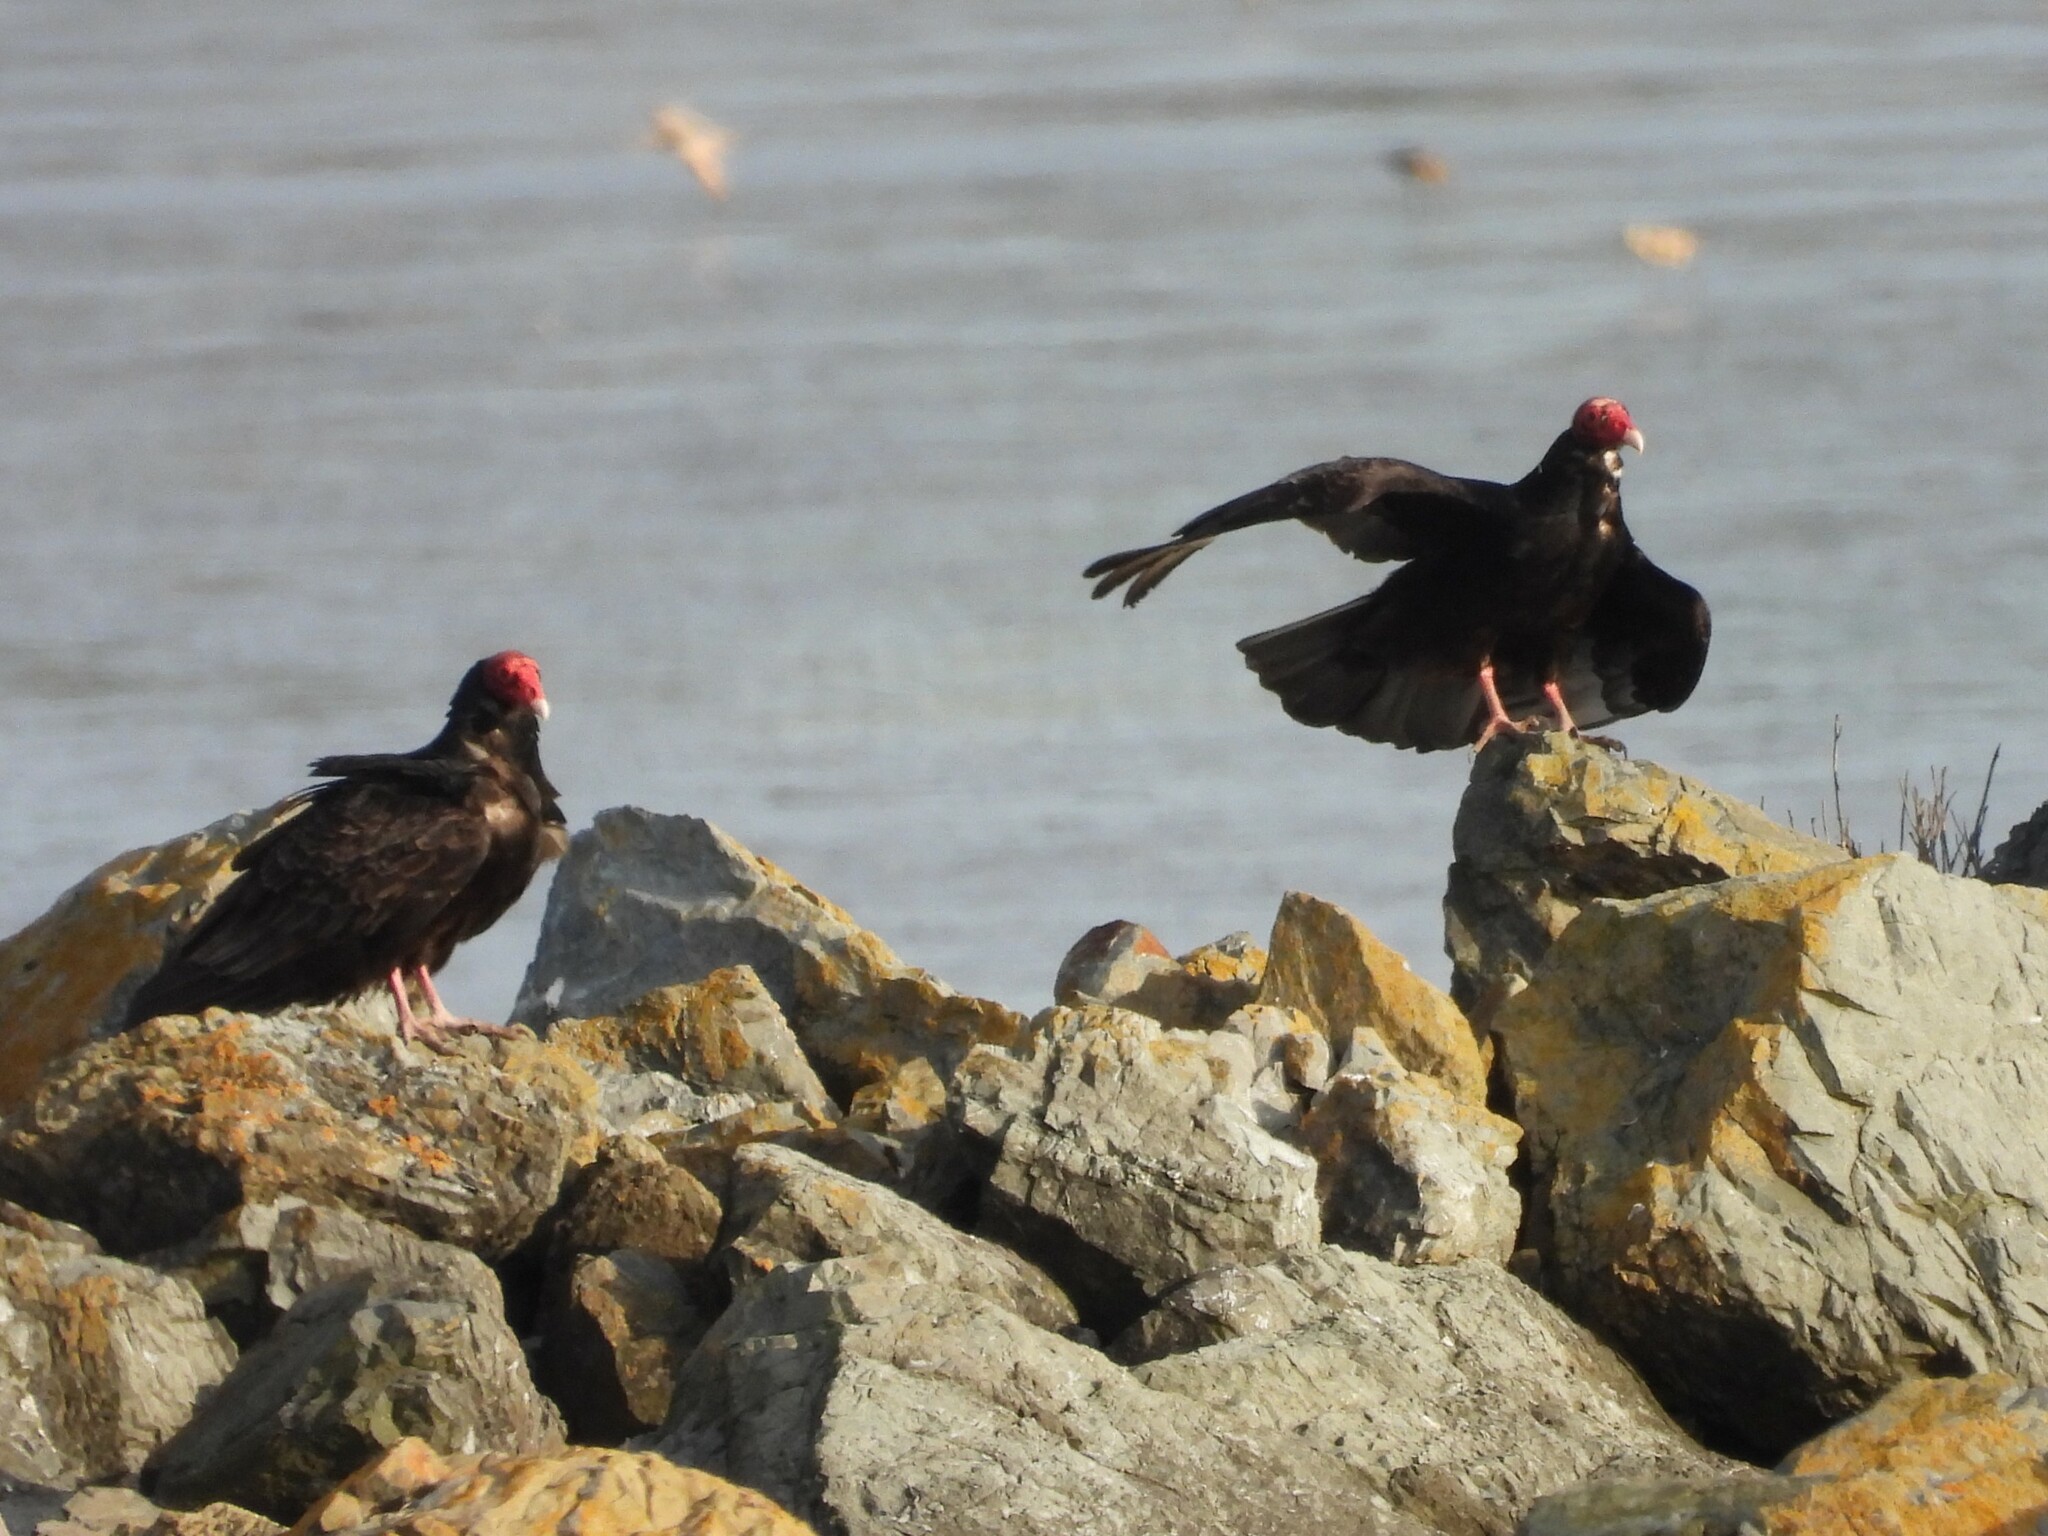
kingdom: Animalia
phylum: Chordata
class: Aves
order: Accipitriformes
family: Cathartidae
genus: Cathartes
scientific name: Cathartes aura
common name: Turkey vulture
